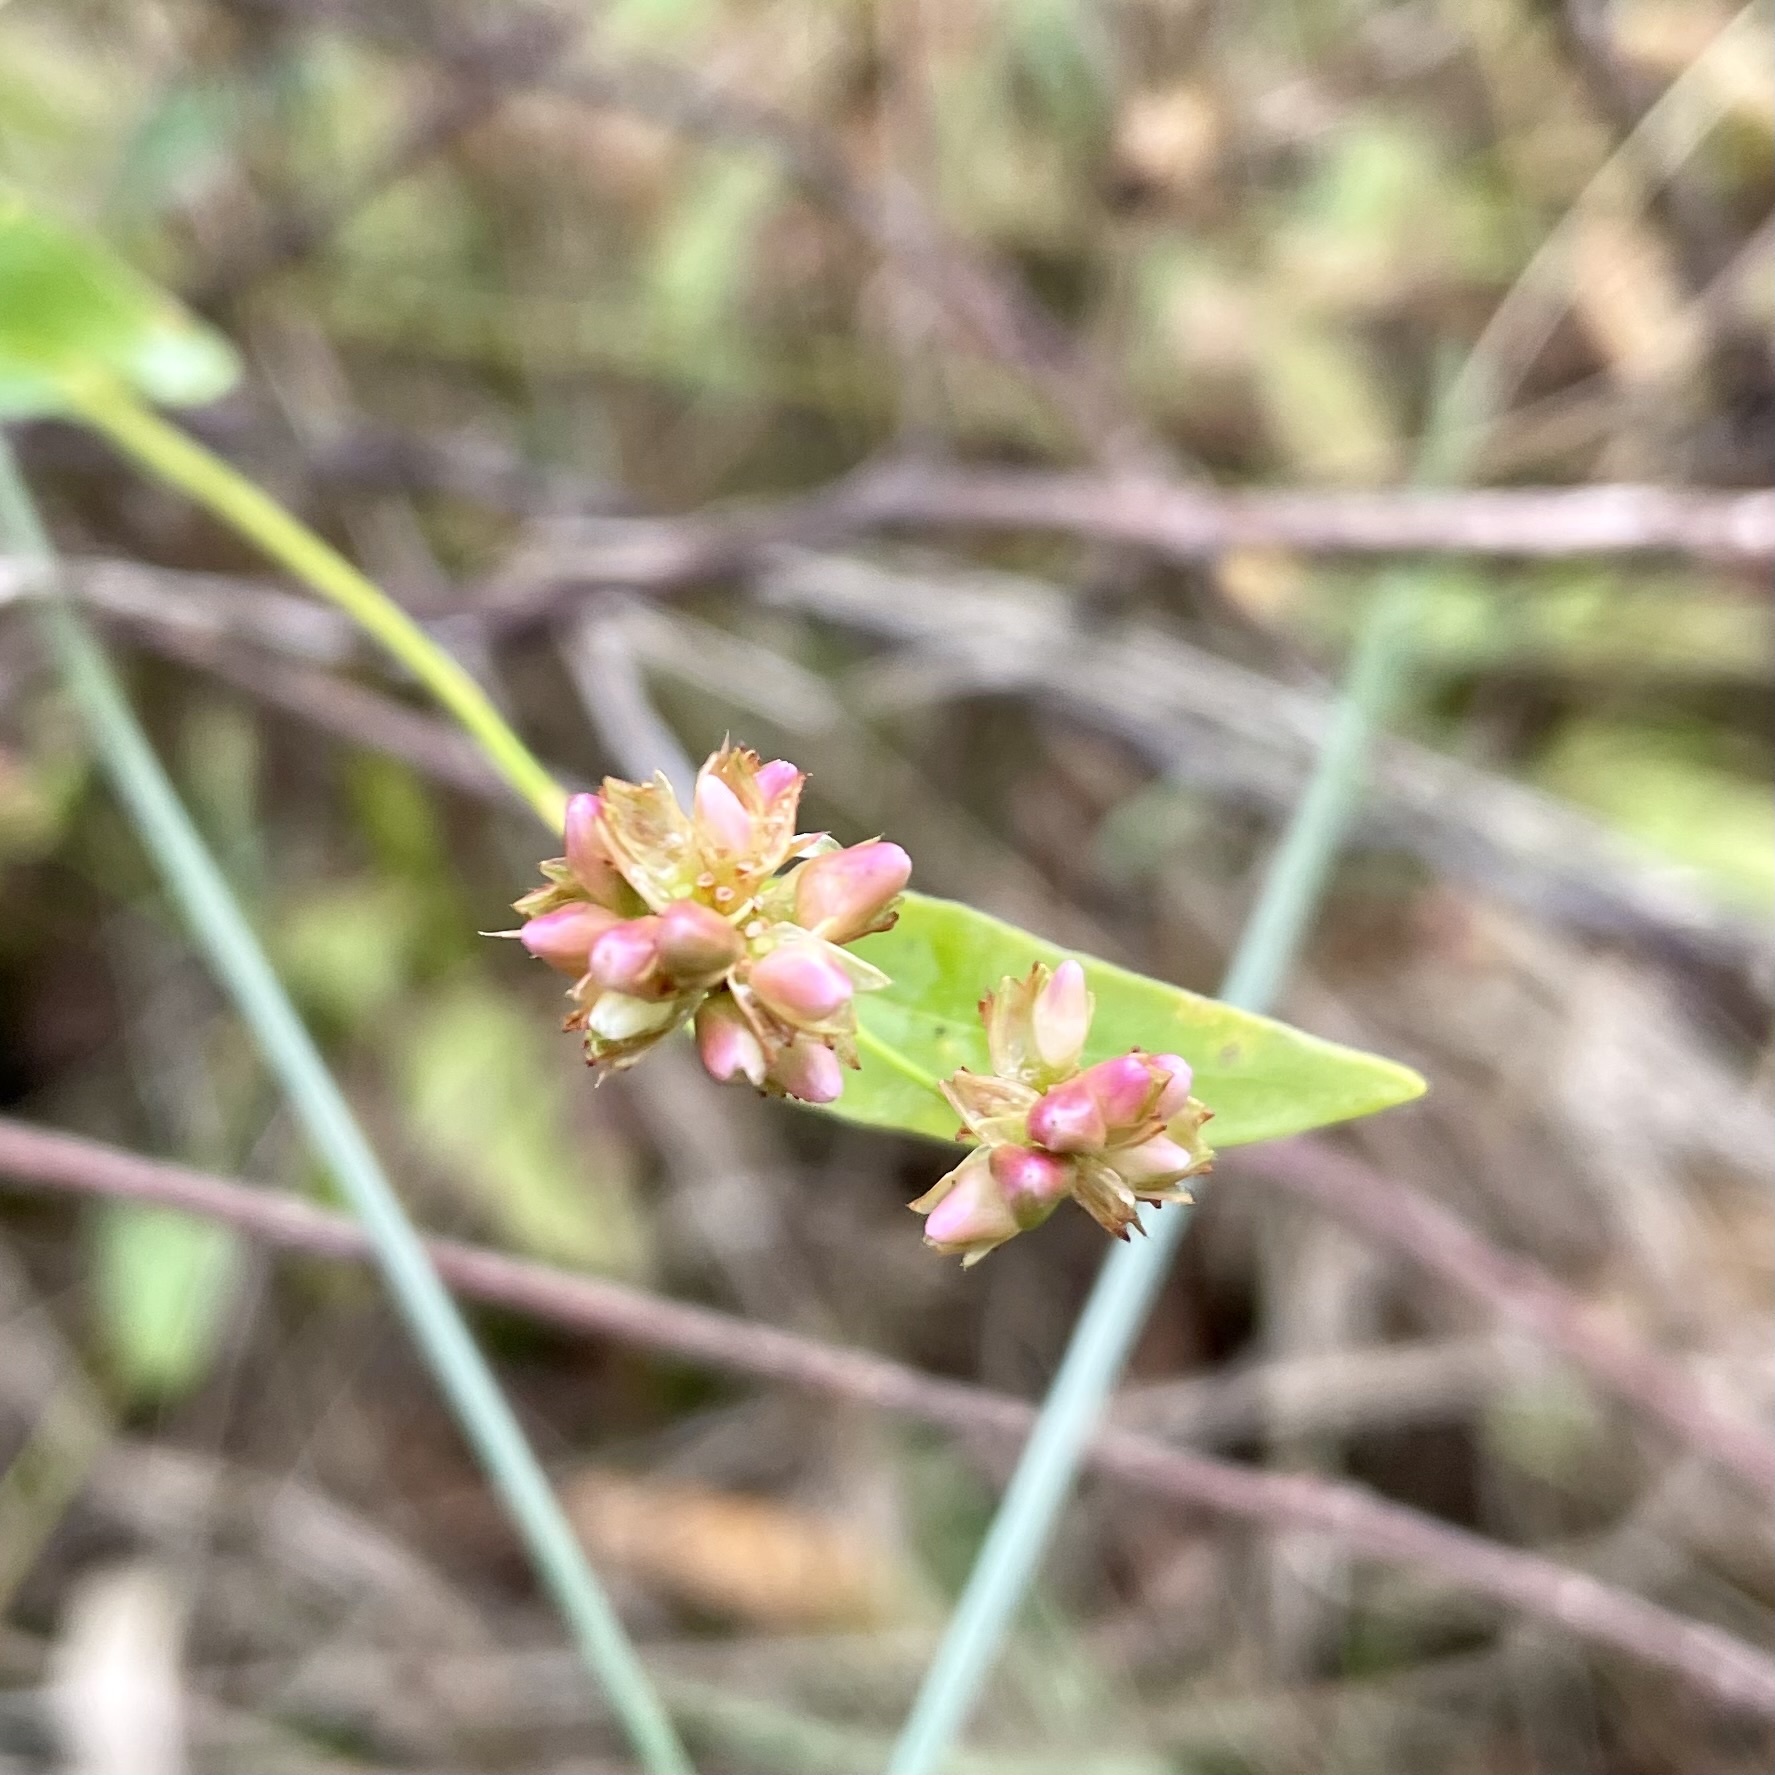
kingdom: Plantae
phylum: Tracheophyta
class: Magnoliopsida
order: Caryophyllales
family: Polygonaceae
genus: Persicaria
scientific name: Persicaria sagittata
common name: American tearthumb
